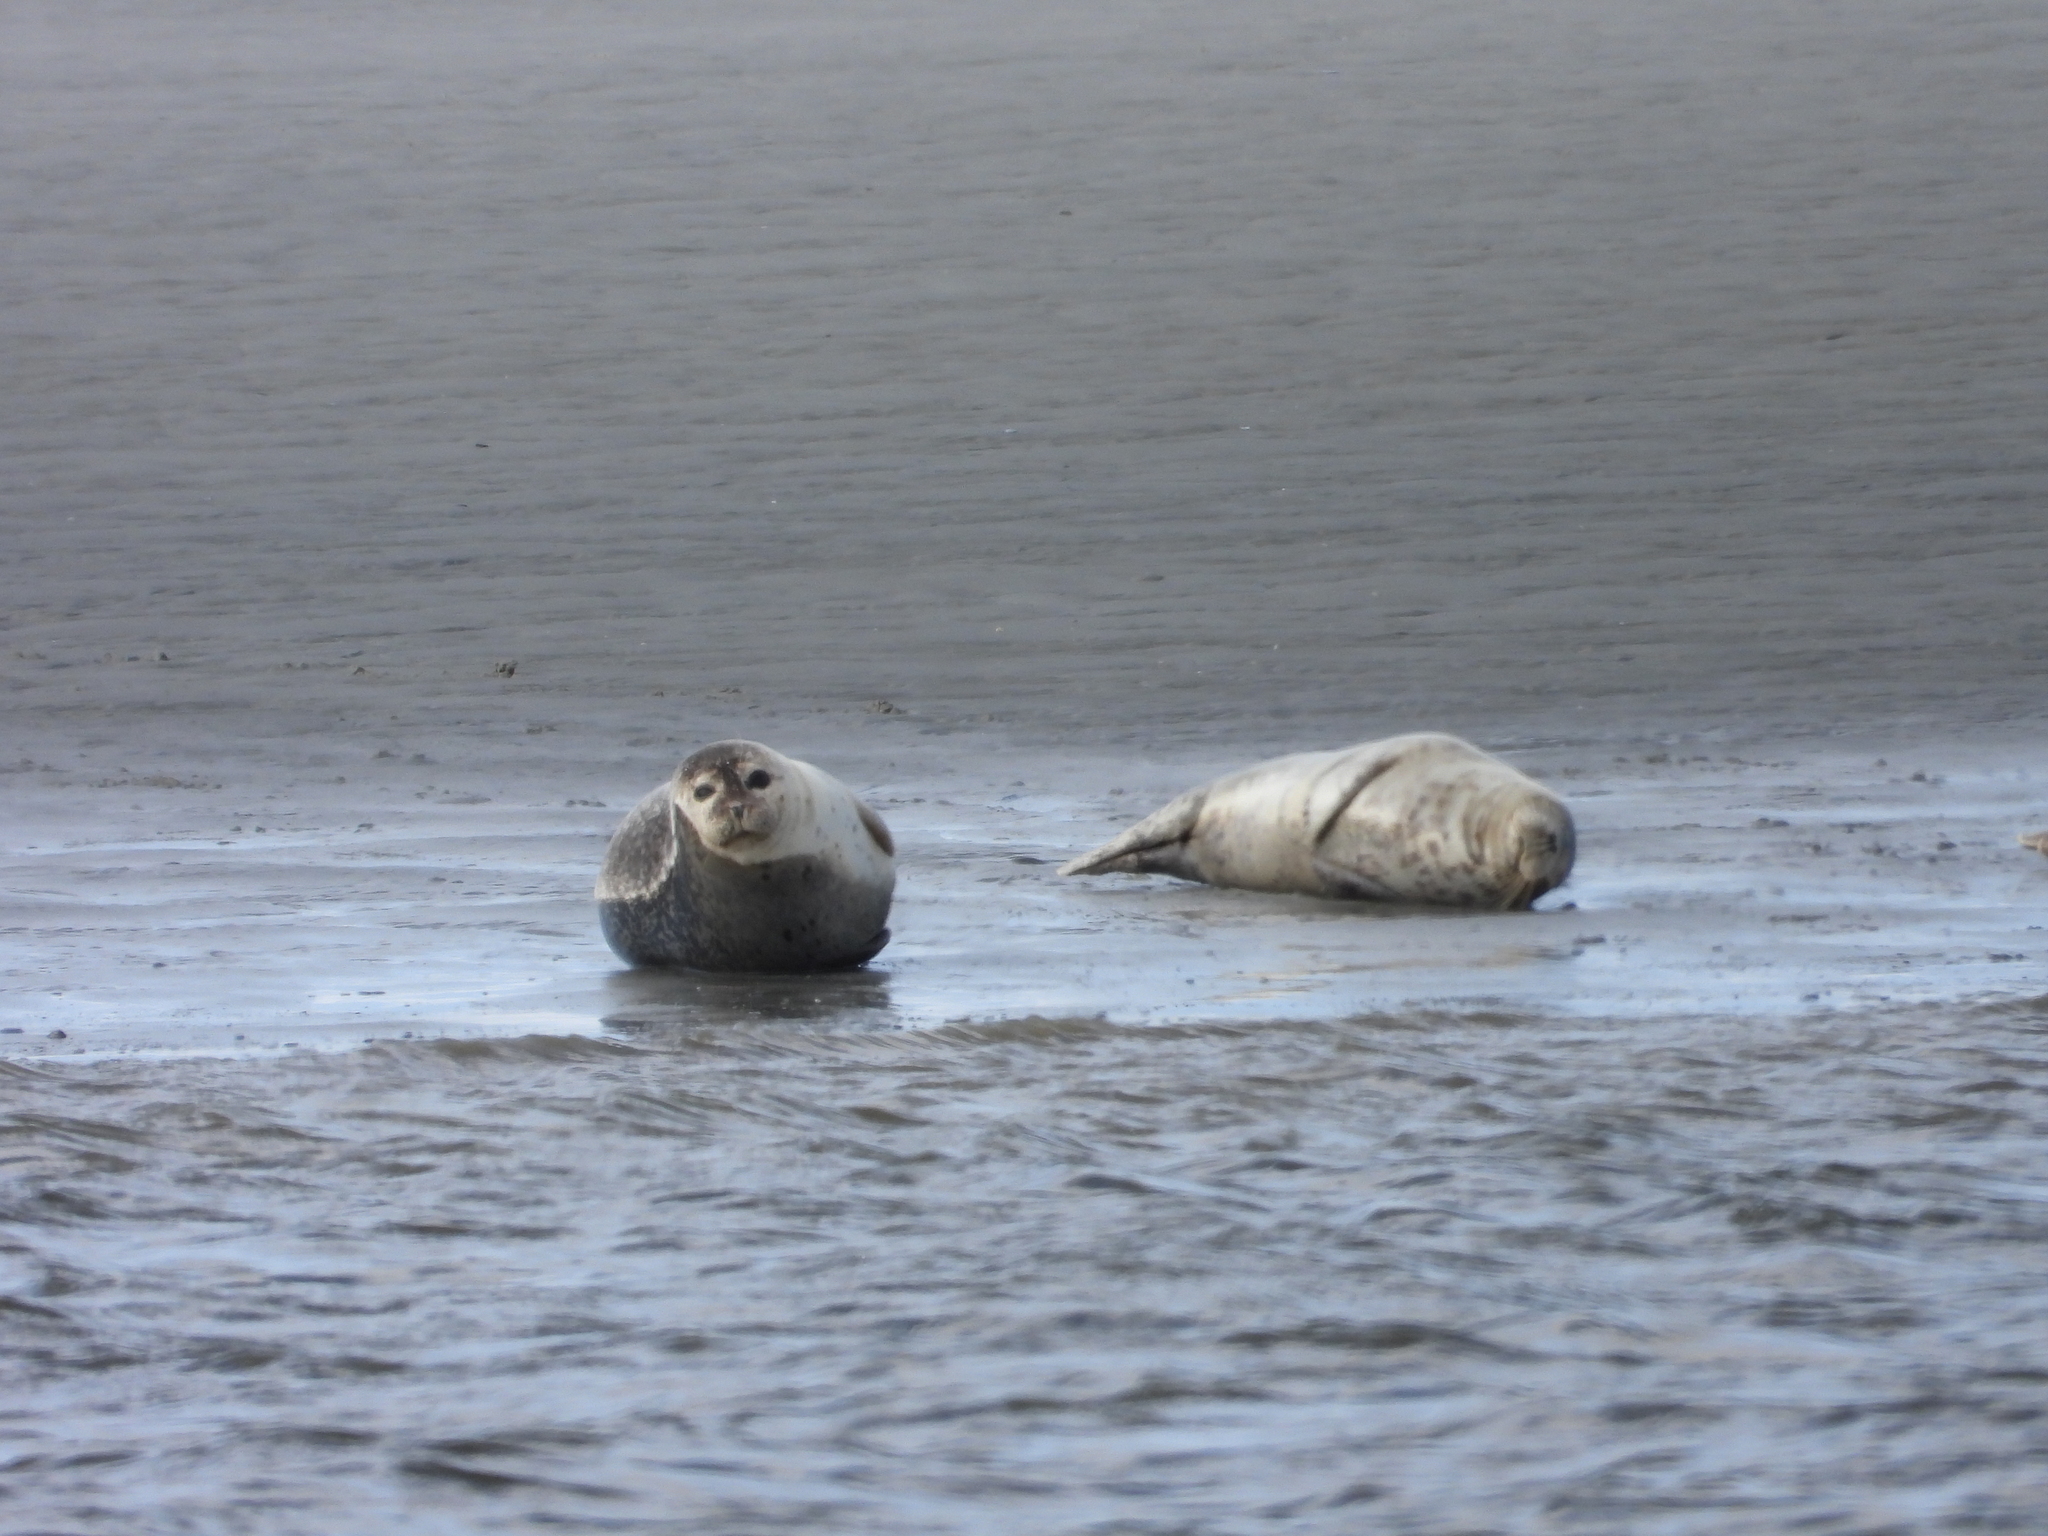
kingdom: Animalia
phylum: Chordata
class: Mammalia
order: Carnivora
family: Phocidae
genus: Phoca
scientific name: Phoca vitulina
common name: Harbor seal
